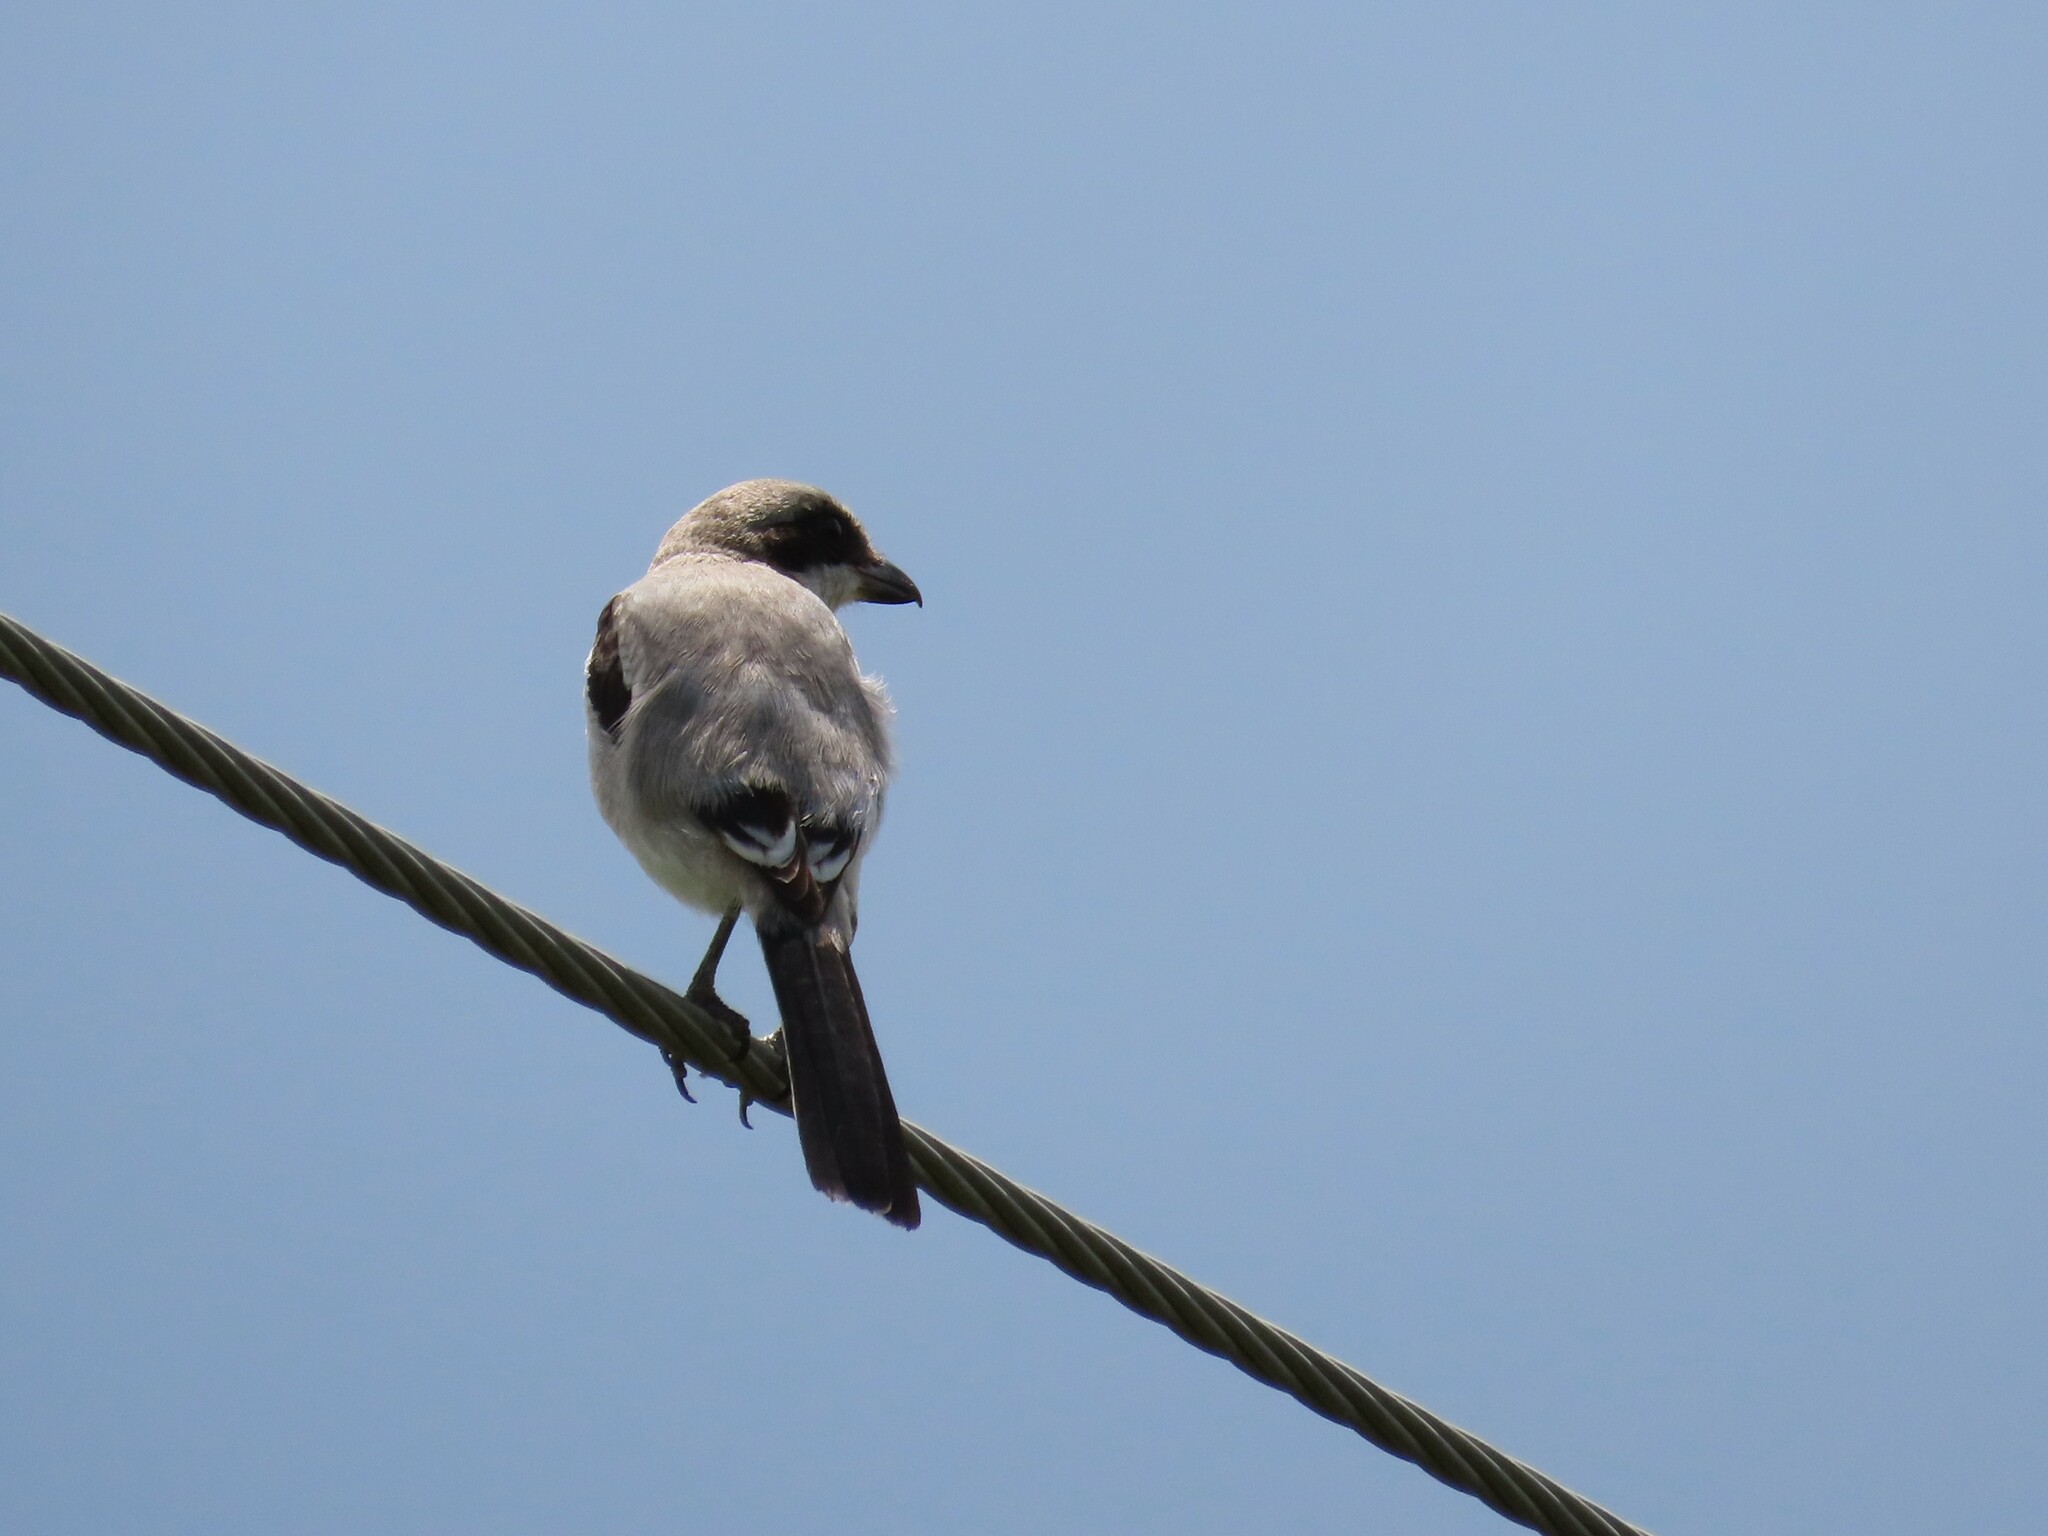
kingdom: Animalia
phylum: Chordata
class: Aves
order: Passeriformes
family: Laniidae
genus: Lanius
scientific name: Lanius ludovicianus
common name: Loggerhead shrike
